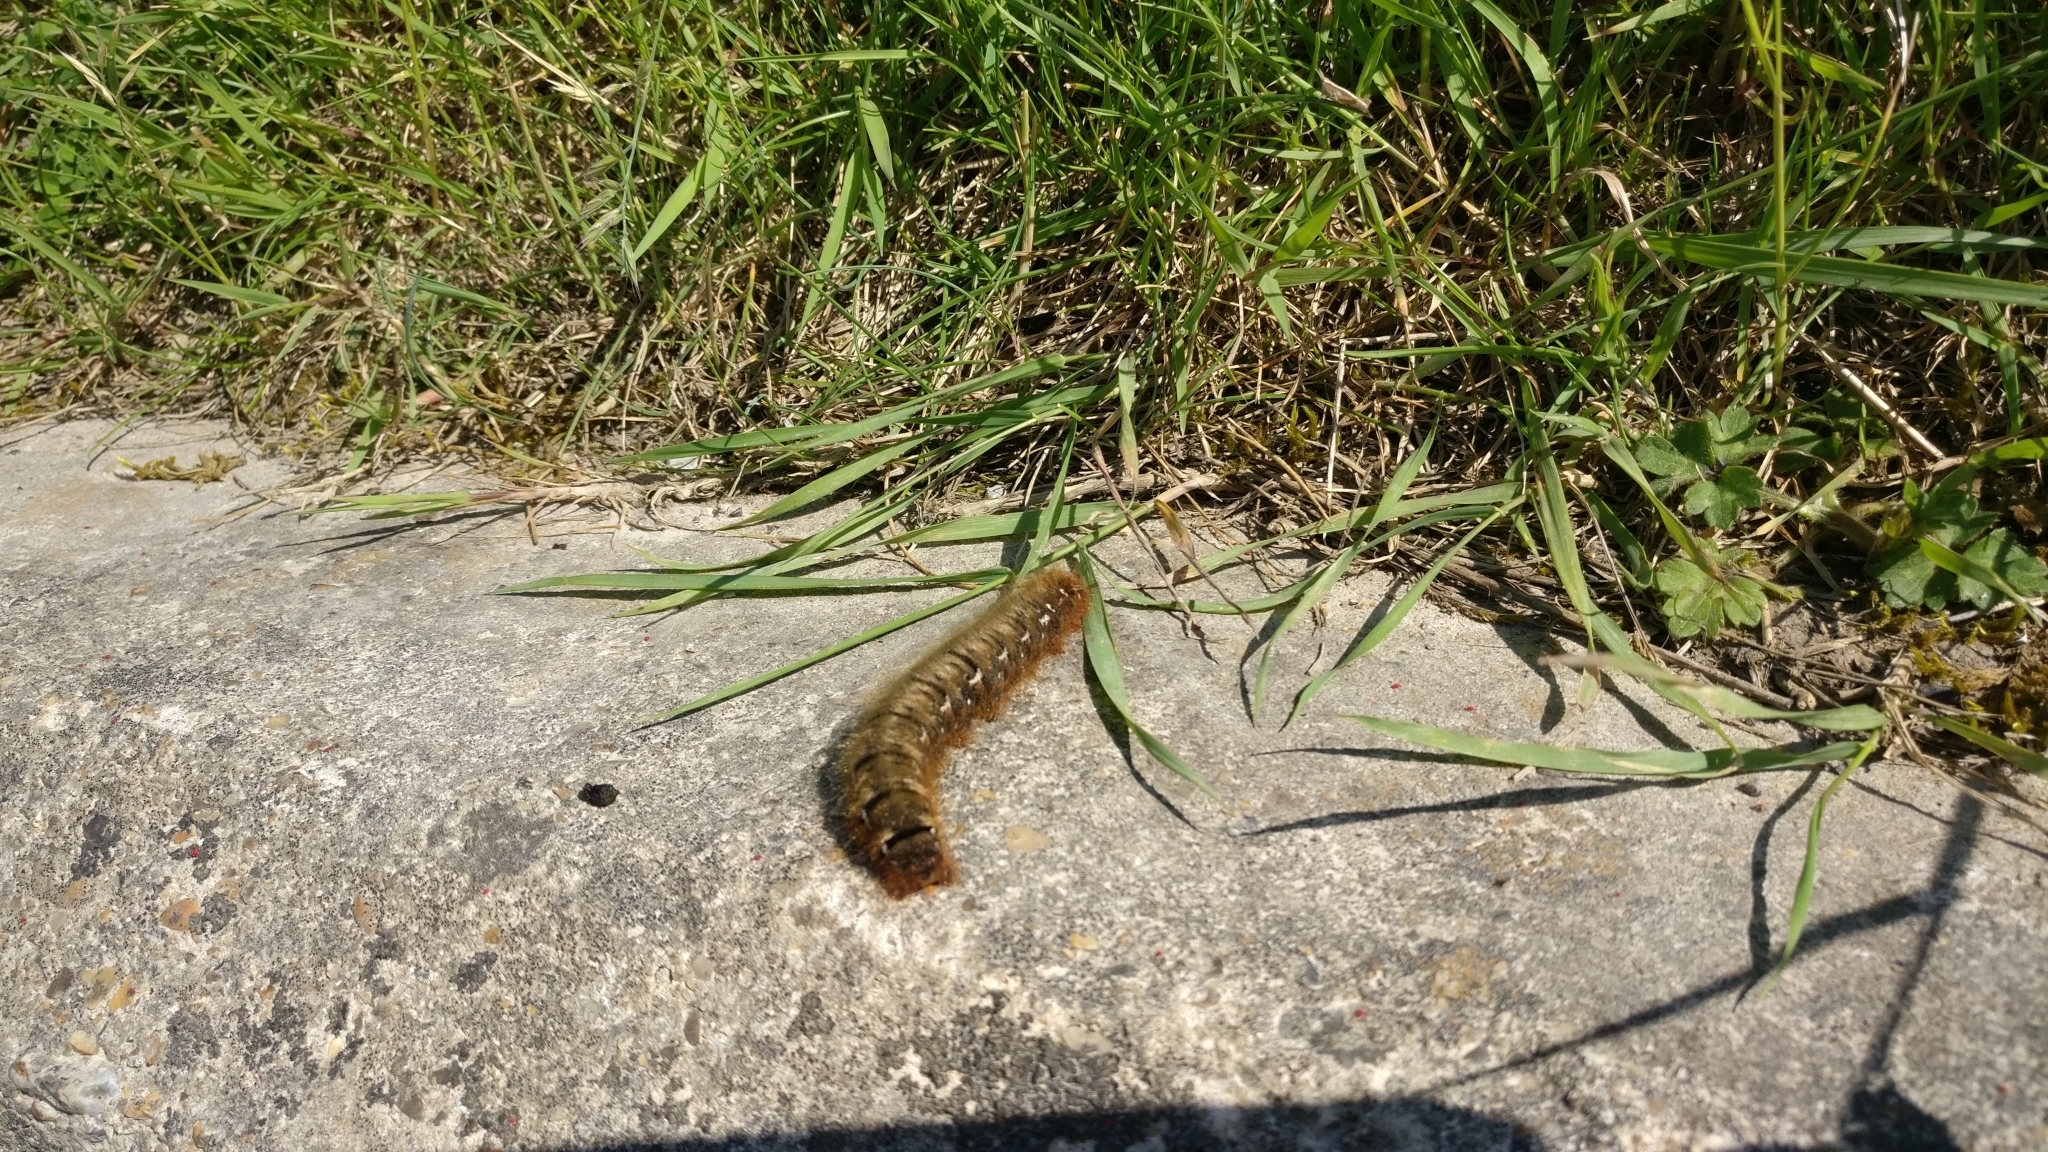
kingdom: Animalia
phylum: Arthropoda
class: Insecta
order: Lepidoptera
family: Lasiocampidae
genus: Lasiocampa
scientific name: Lasiocampa quercus
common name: Oak eggar
